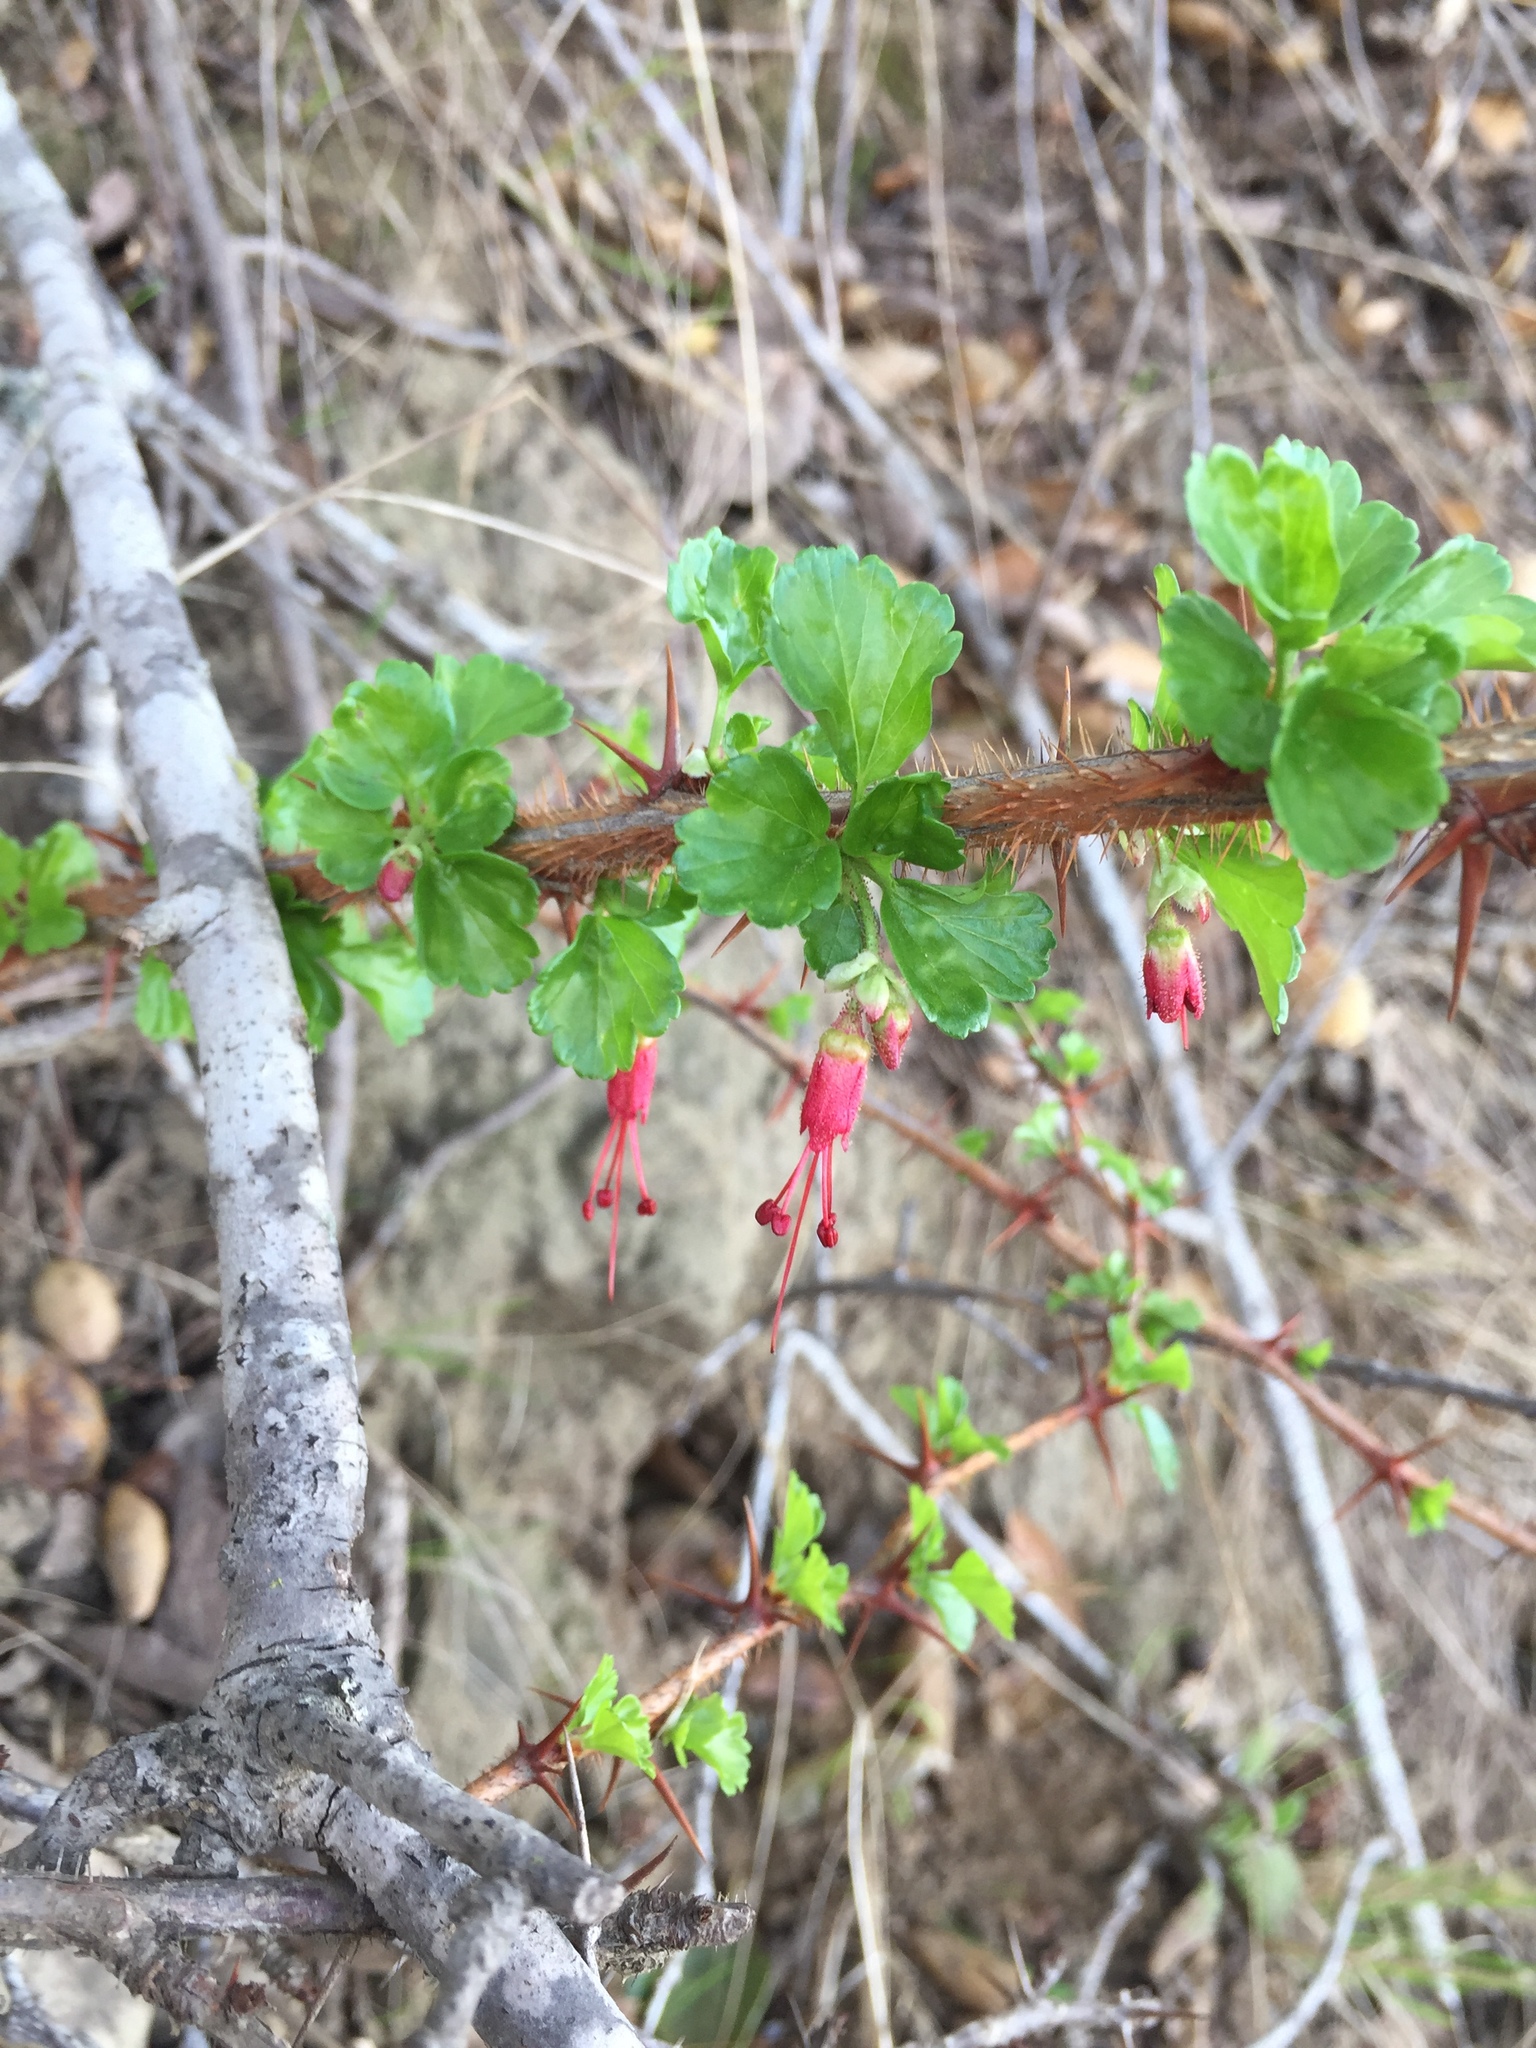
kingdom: Plantae
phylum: Tracheophyta
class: Magnoliopsida
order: Saxifragales
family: Grossulariaceae
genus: Ribes
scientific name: Ribes speciosum
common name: Fuchsia-flower gooseberry
